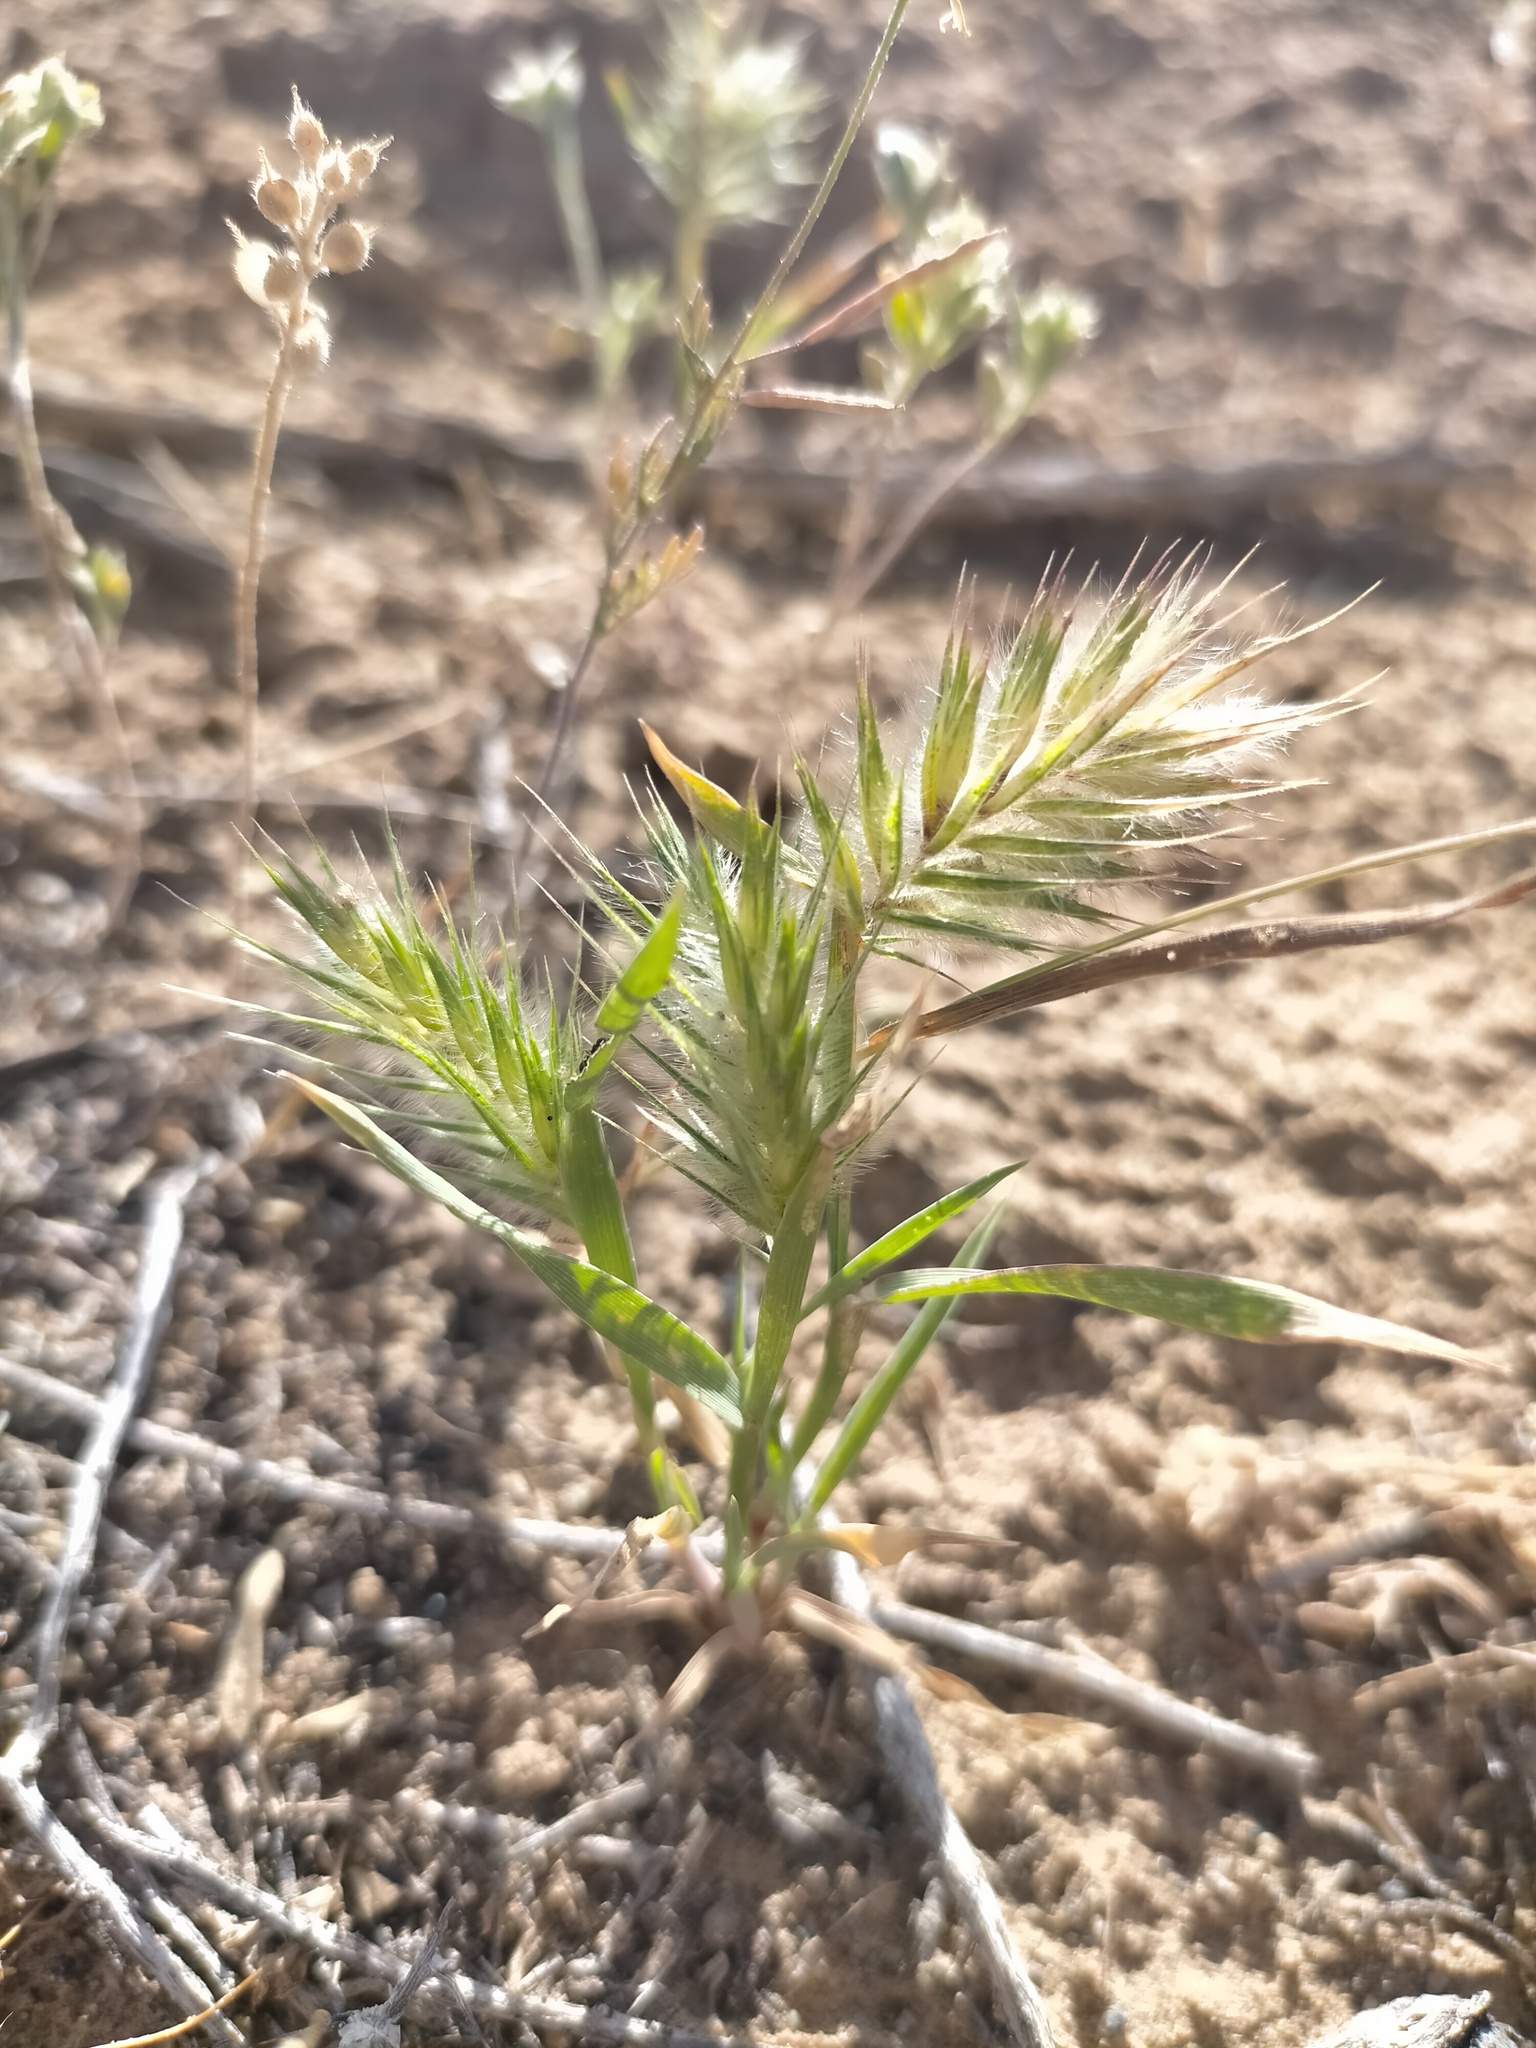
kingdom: Plantae
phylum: Tracheophyta
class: Liliopsida
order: Poales
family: Poaceae
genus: Eremopyrum
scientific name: Eremopyrum orientale
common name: Oriental false wheatgrass
